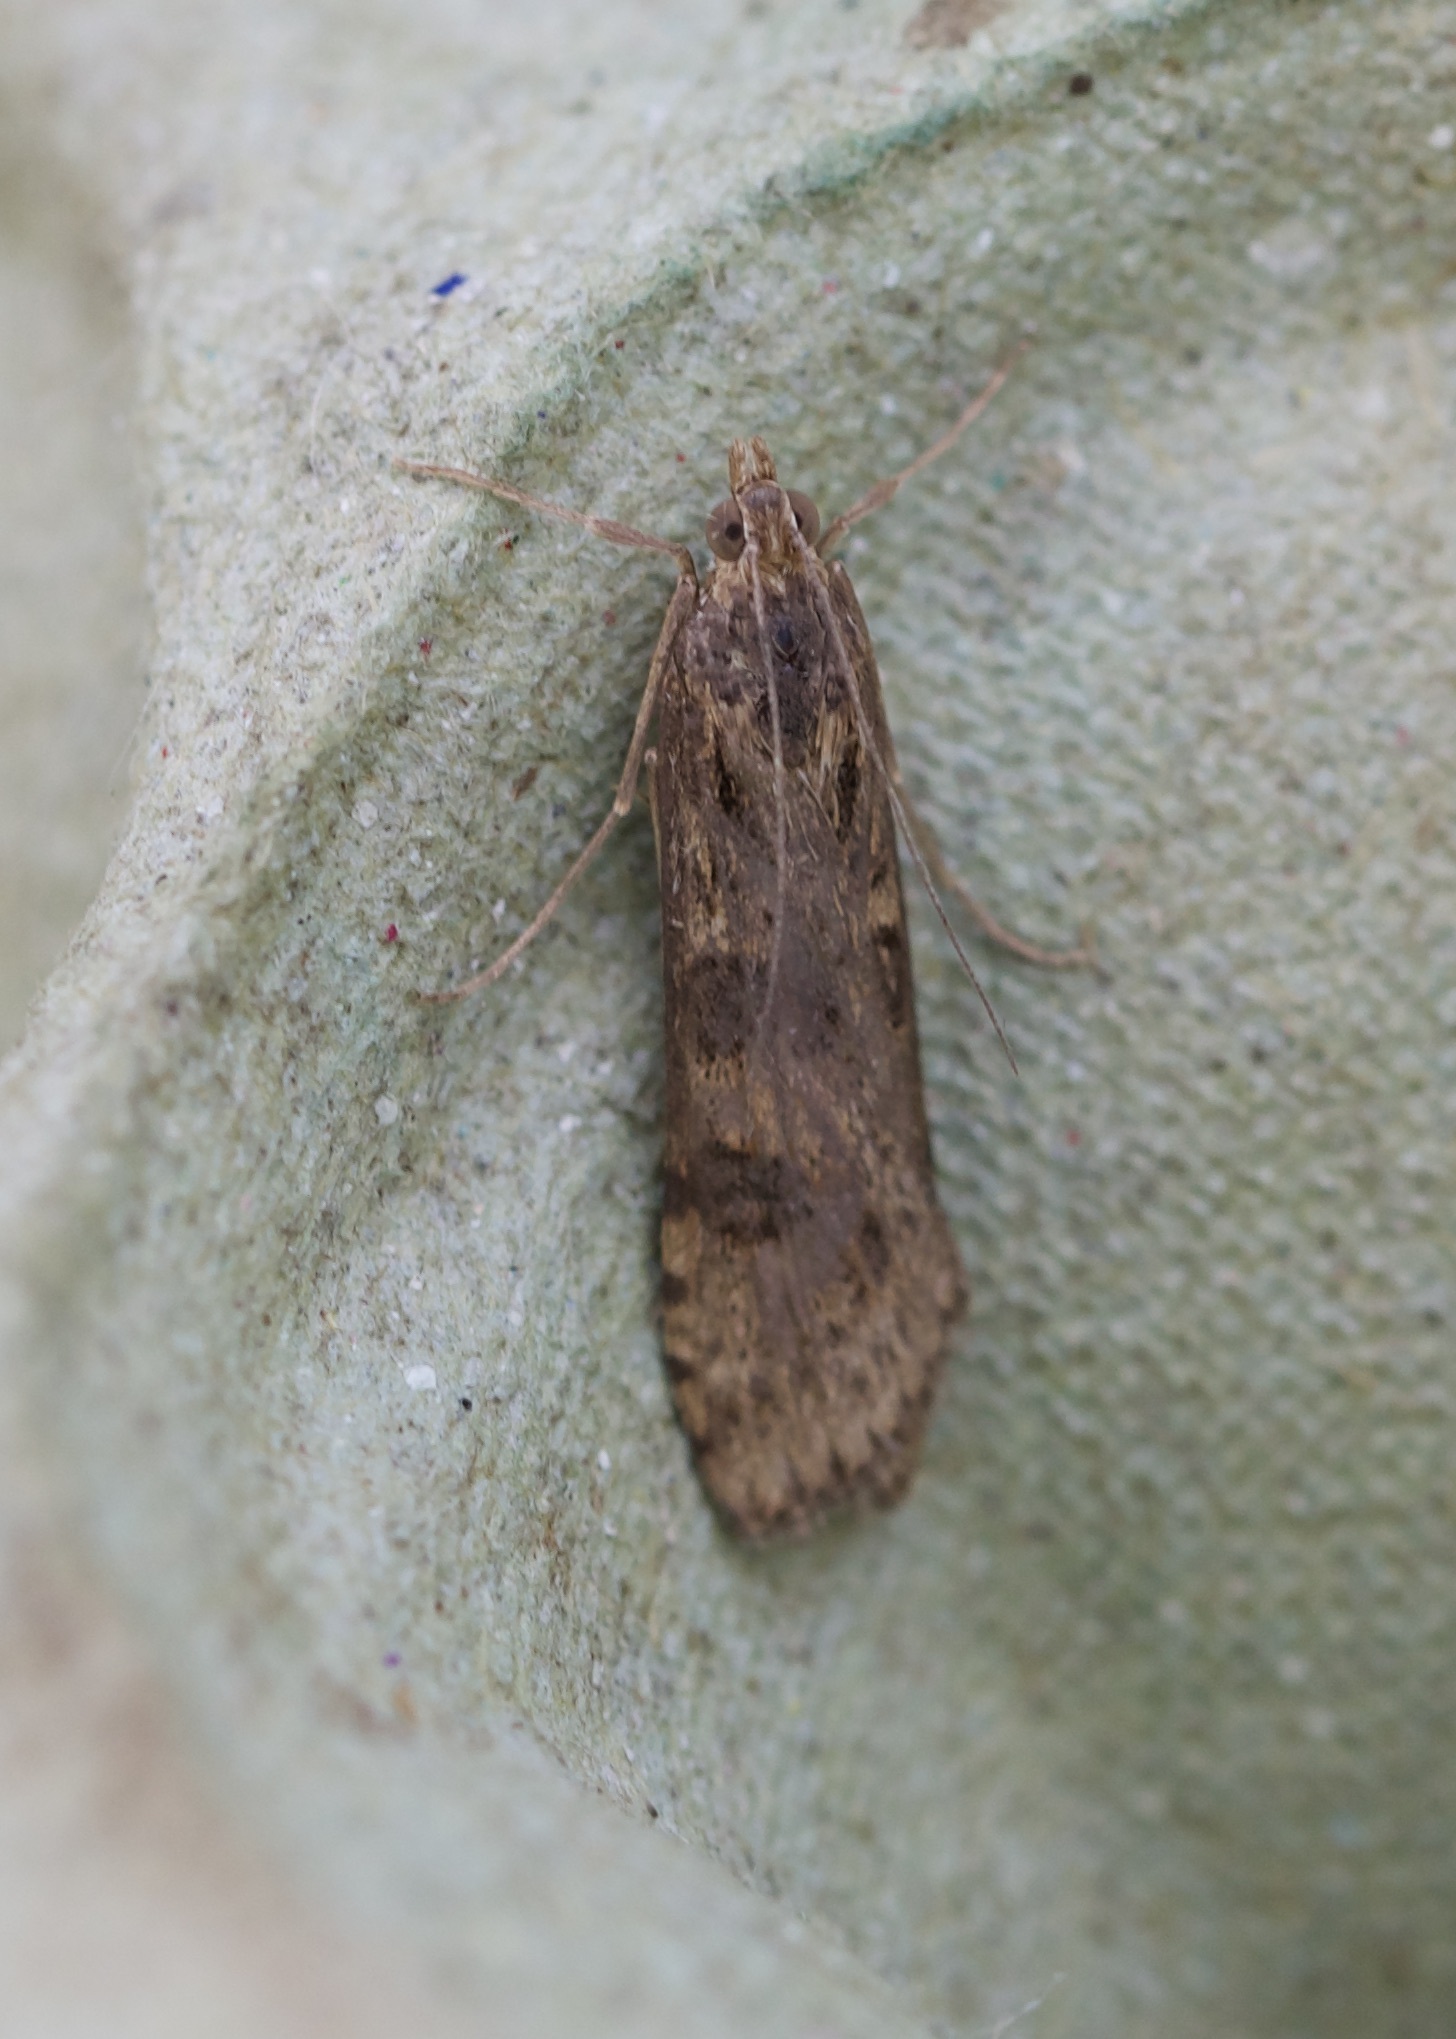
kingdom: Animalia
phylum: Arthropoda
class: Insecta
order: Lepidoptera
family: Crambidae
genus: Nomophila
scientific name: Nomophila noctuella
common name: Rush veneer
